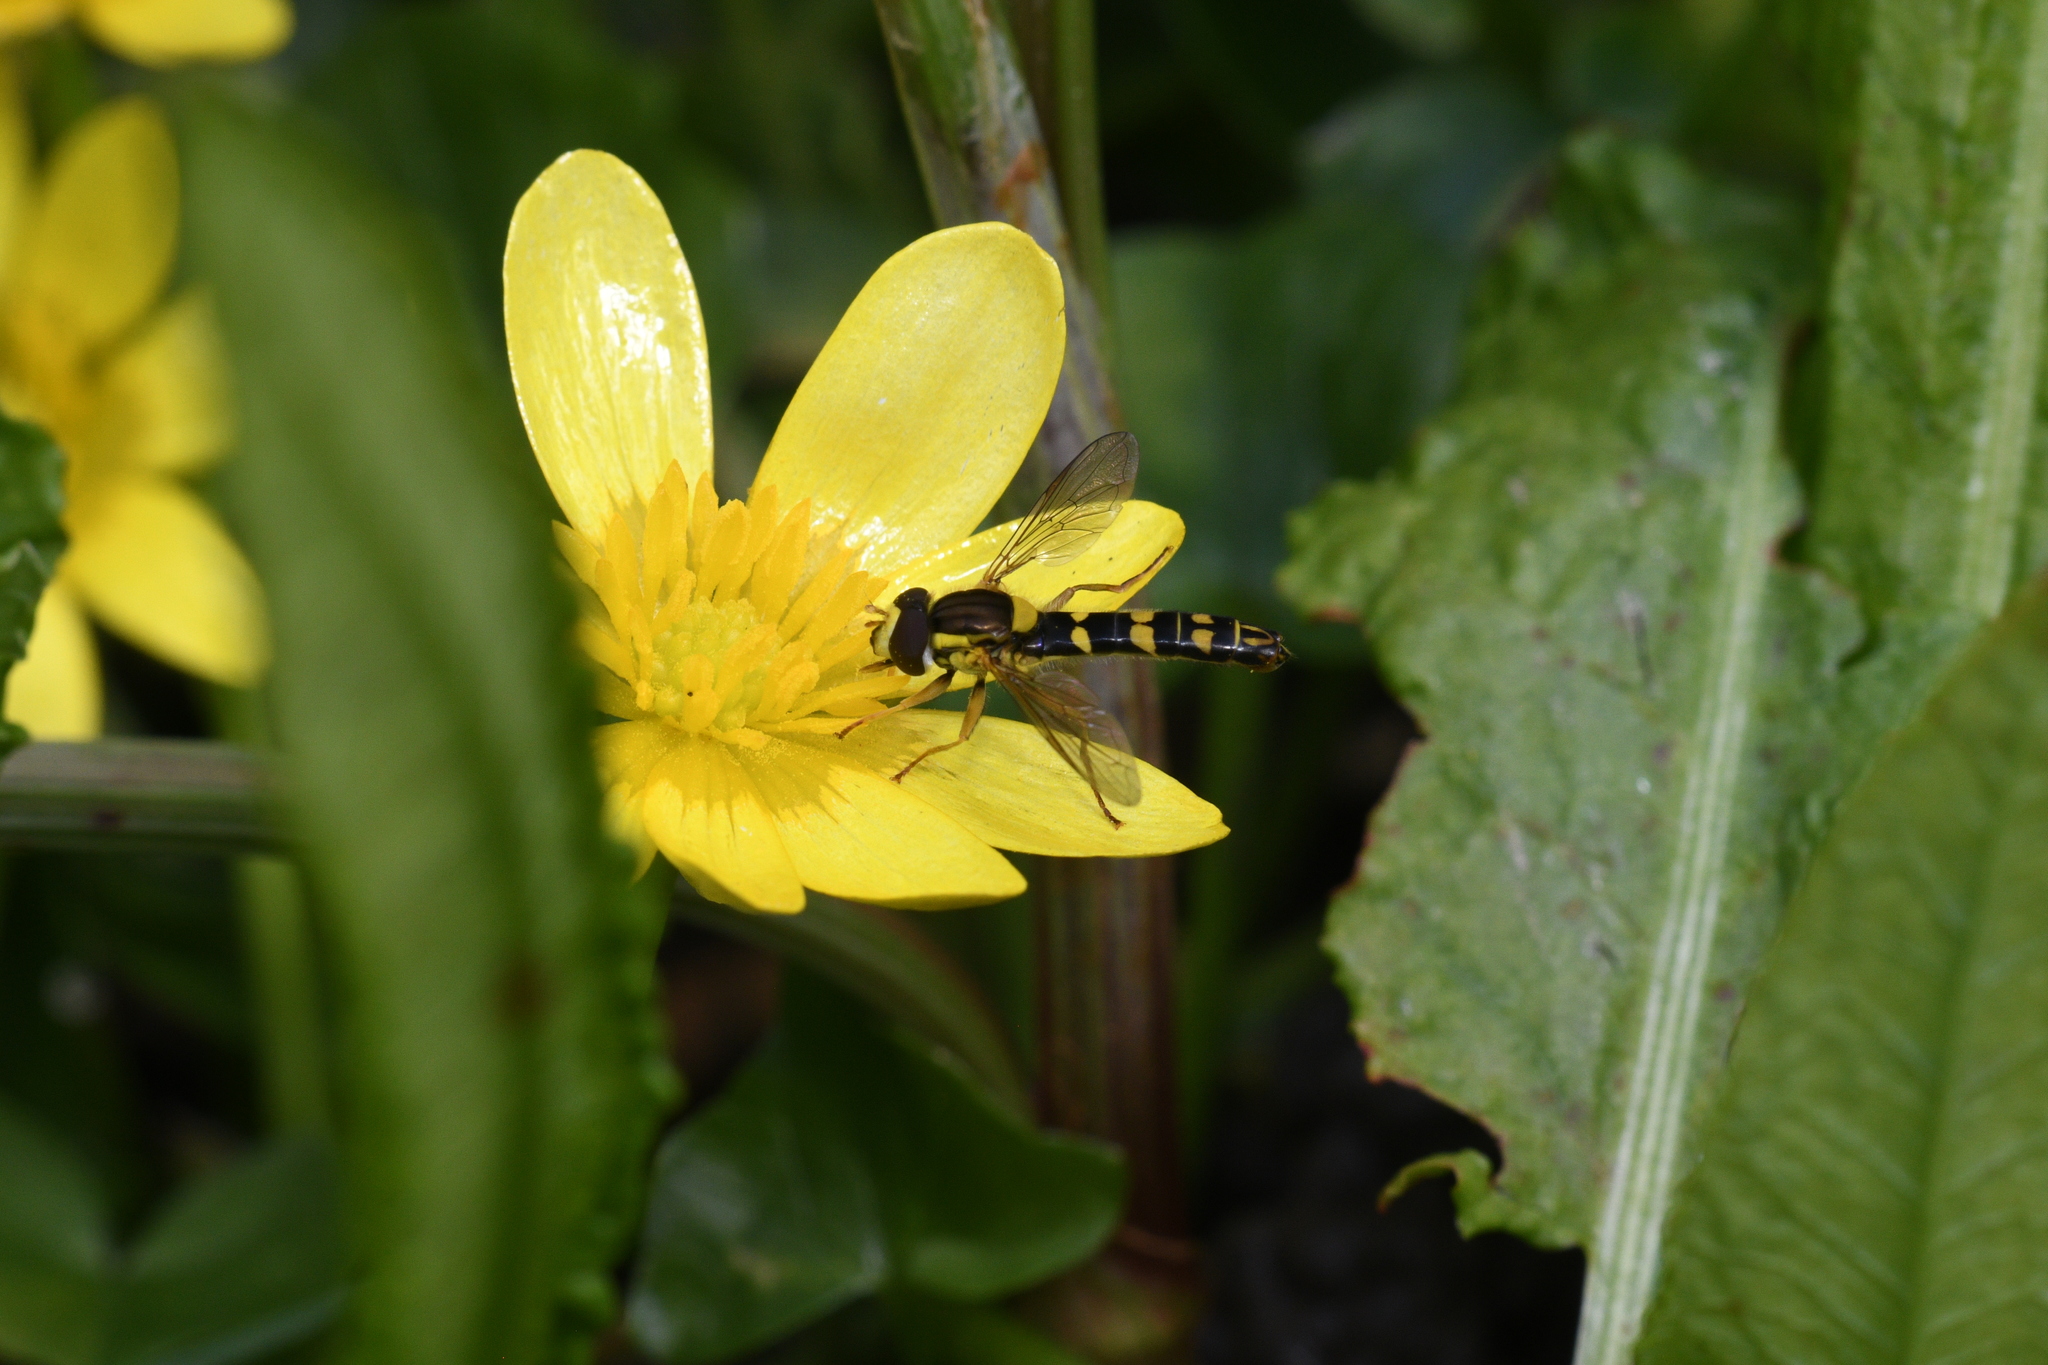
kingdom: Animalia
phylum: Arthropoda
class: Insecta
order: Diptera
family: Syrphidae
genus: Sphaerophoria
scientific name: Sphaerophoria scripta
